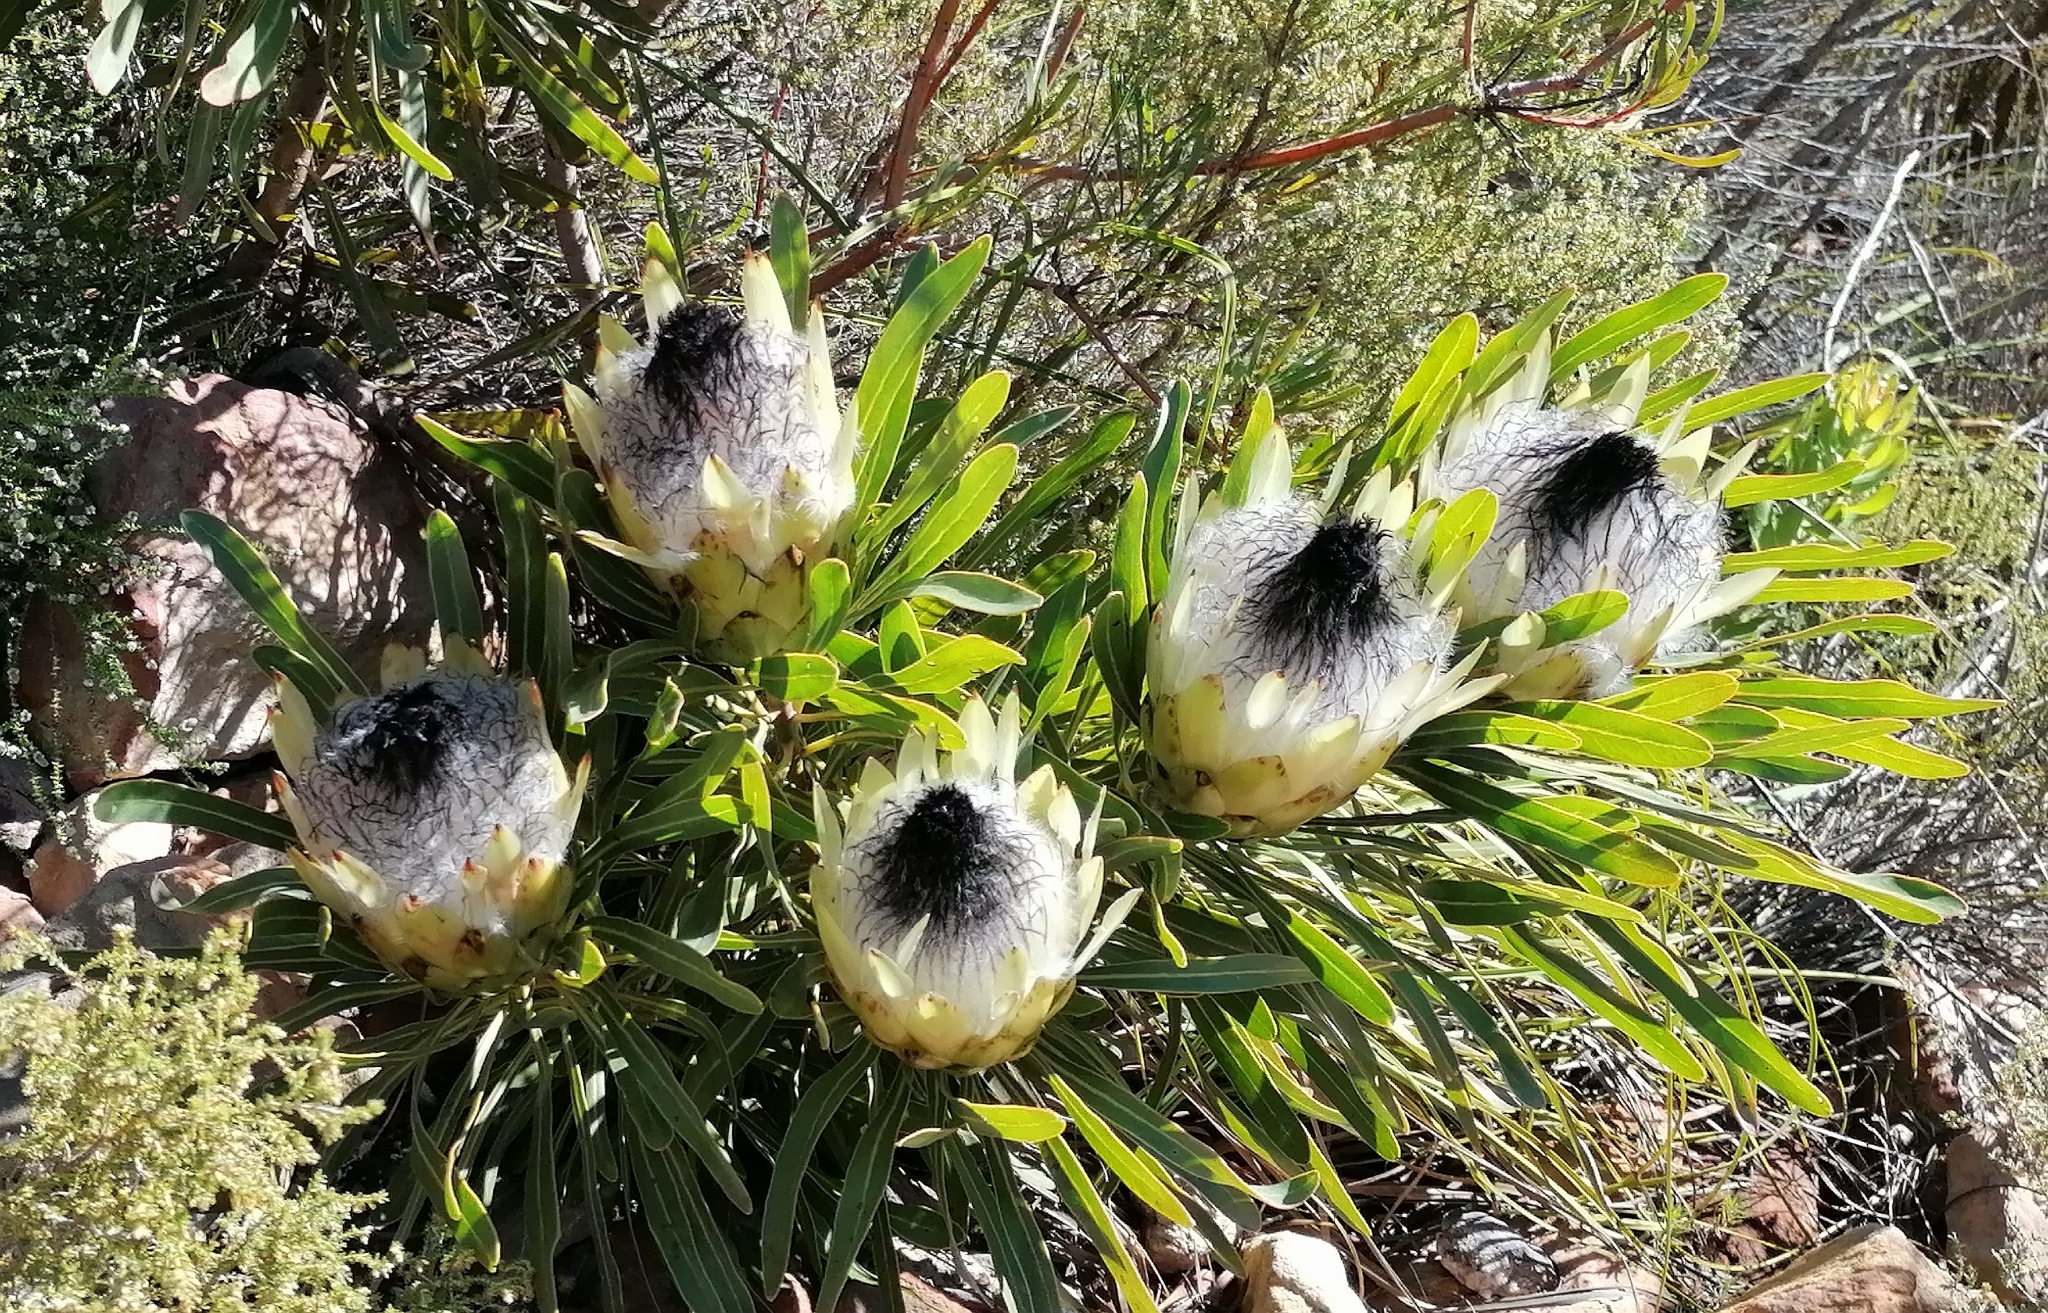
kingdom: Plantae
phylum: Tracheophyta
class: Magnoliopsida
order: Proteales
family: Proteaceae
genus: Protea
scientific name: Protea longifolia
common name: Long-leaf sugarbush
